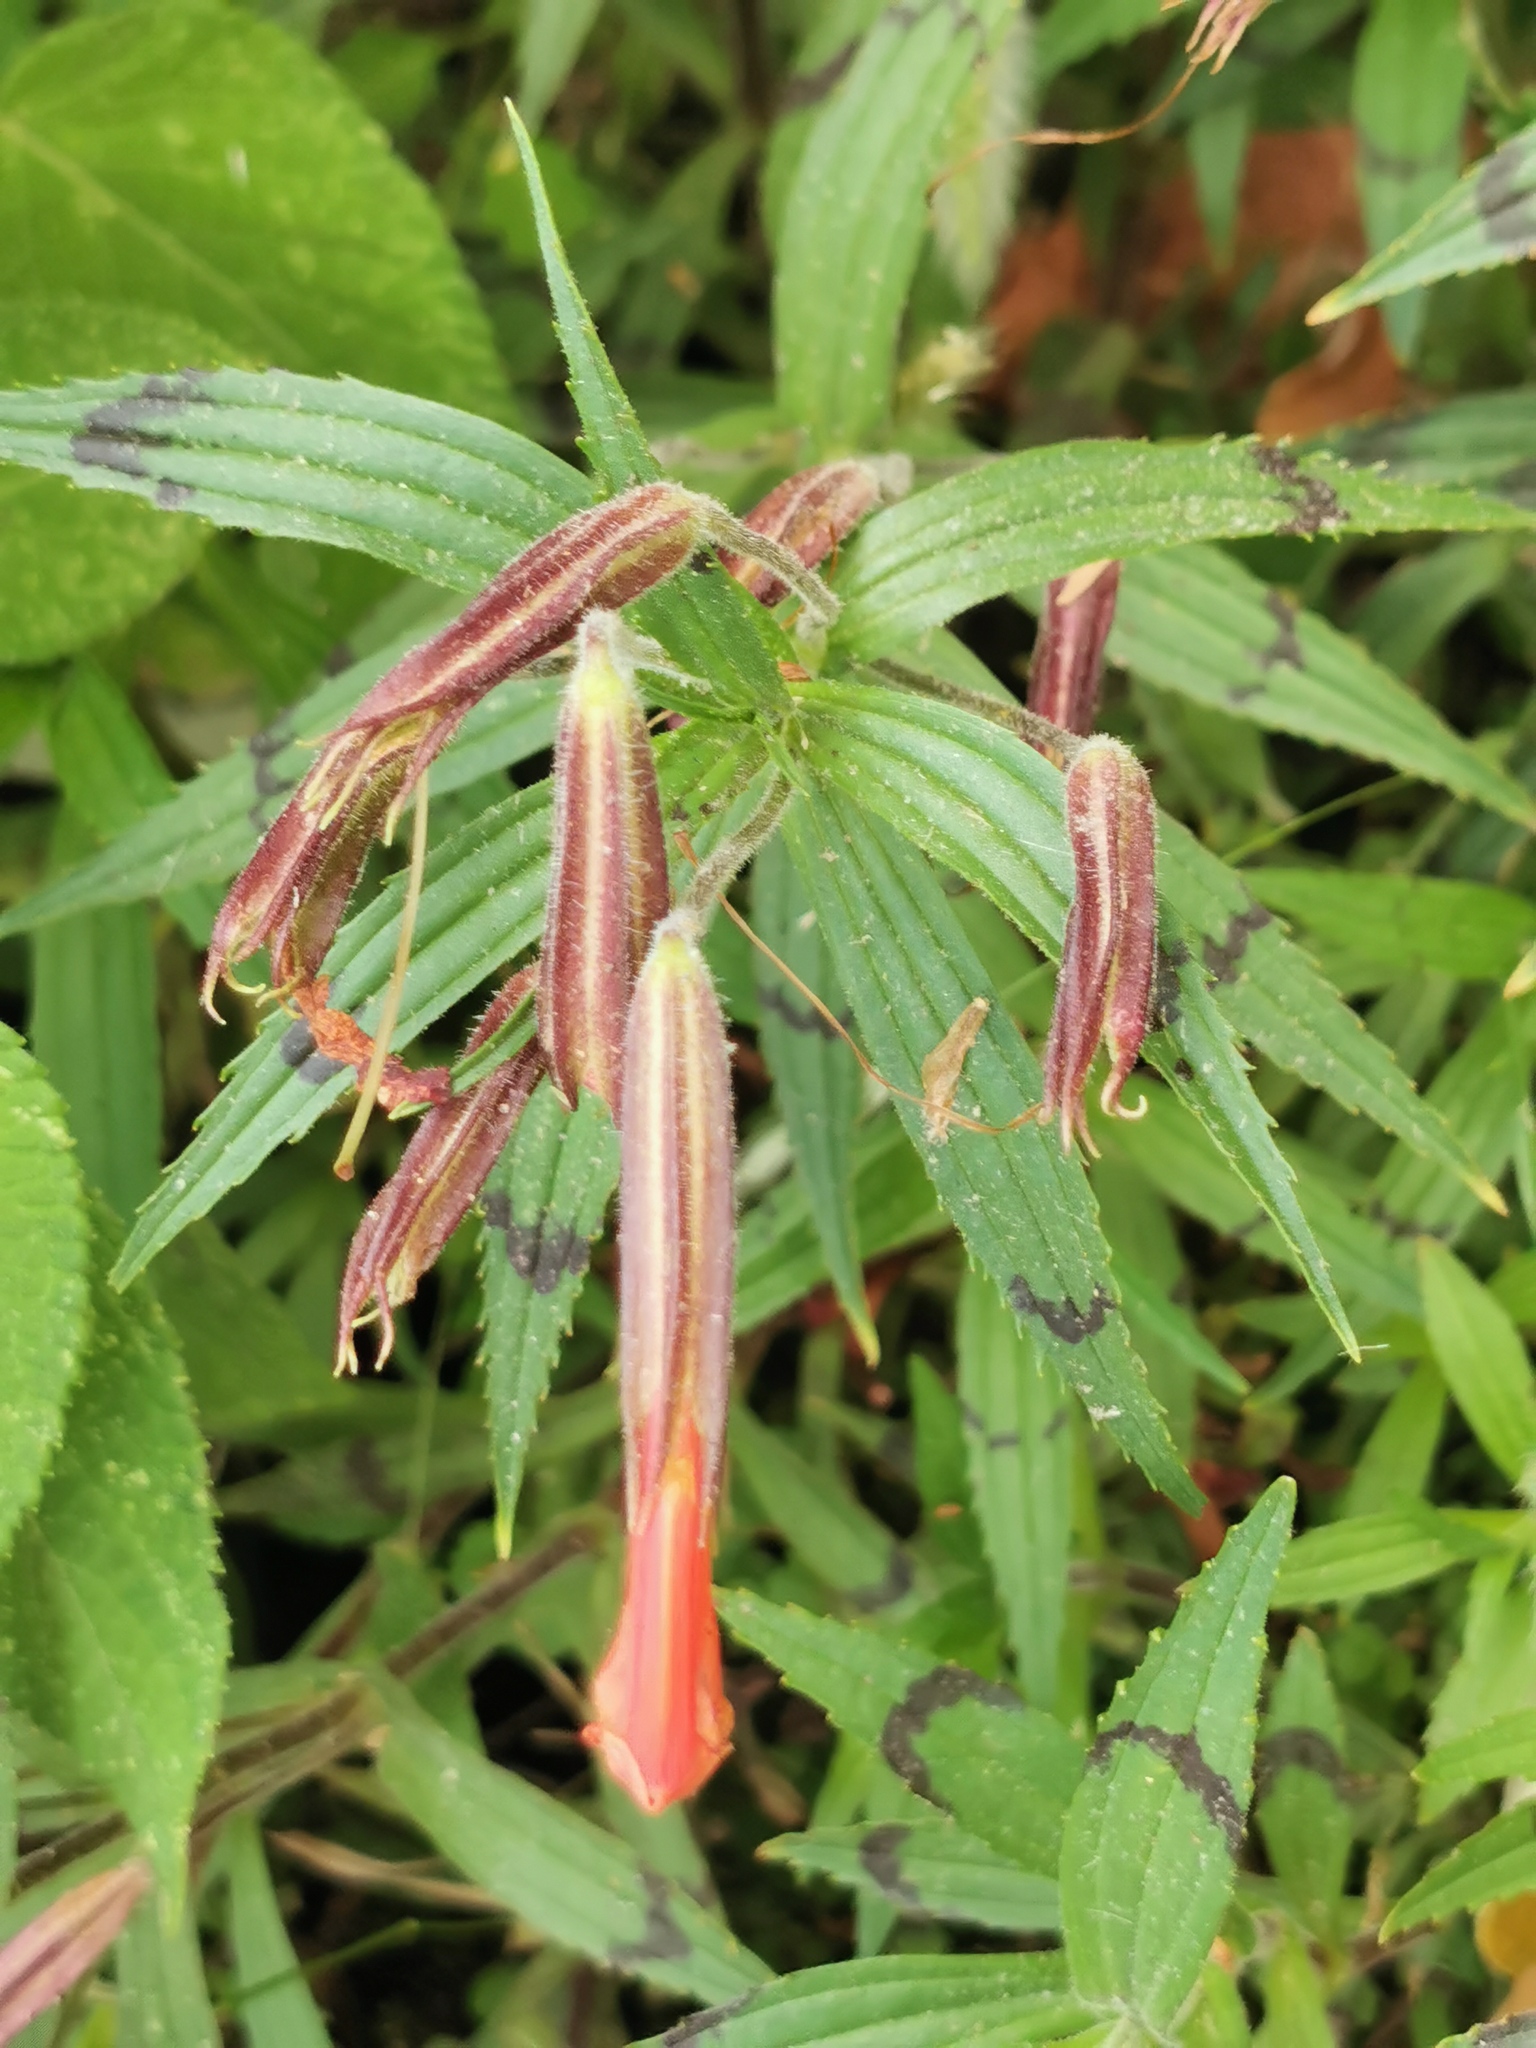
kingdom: Plantae
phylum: Tracheophyta
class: Magnoliopsida
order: Lamiales
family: Phrymaceae
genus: Erythranthe
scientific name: Erythranthe flammea
